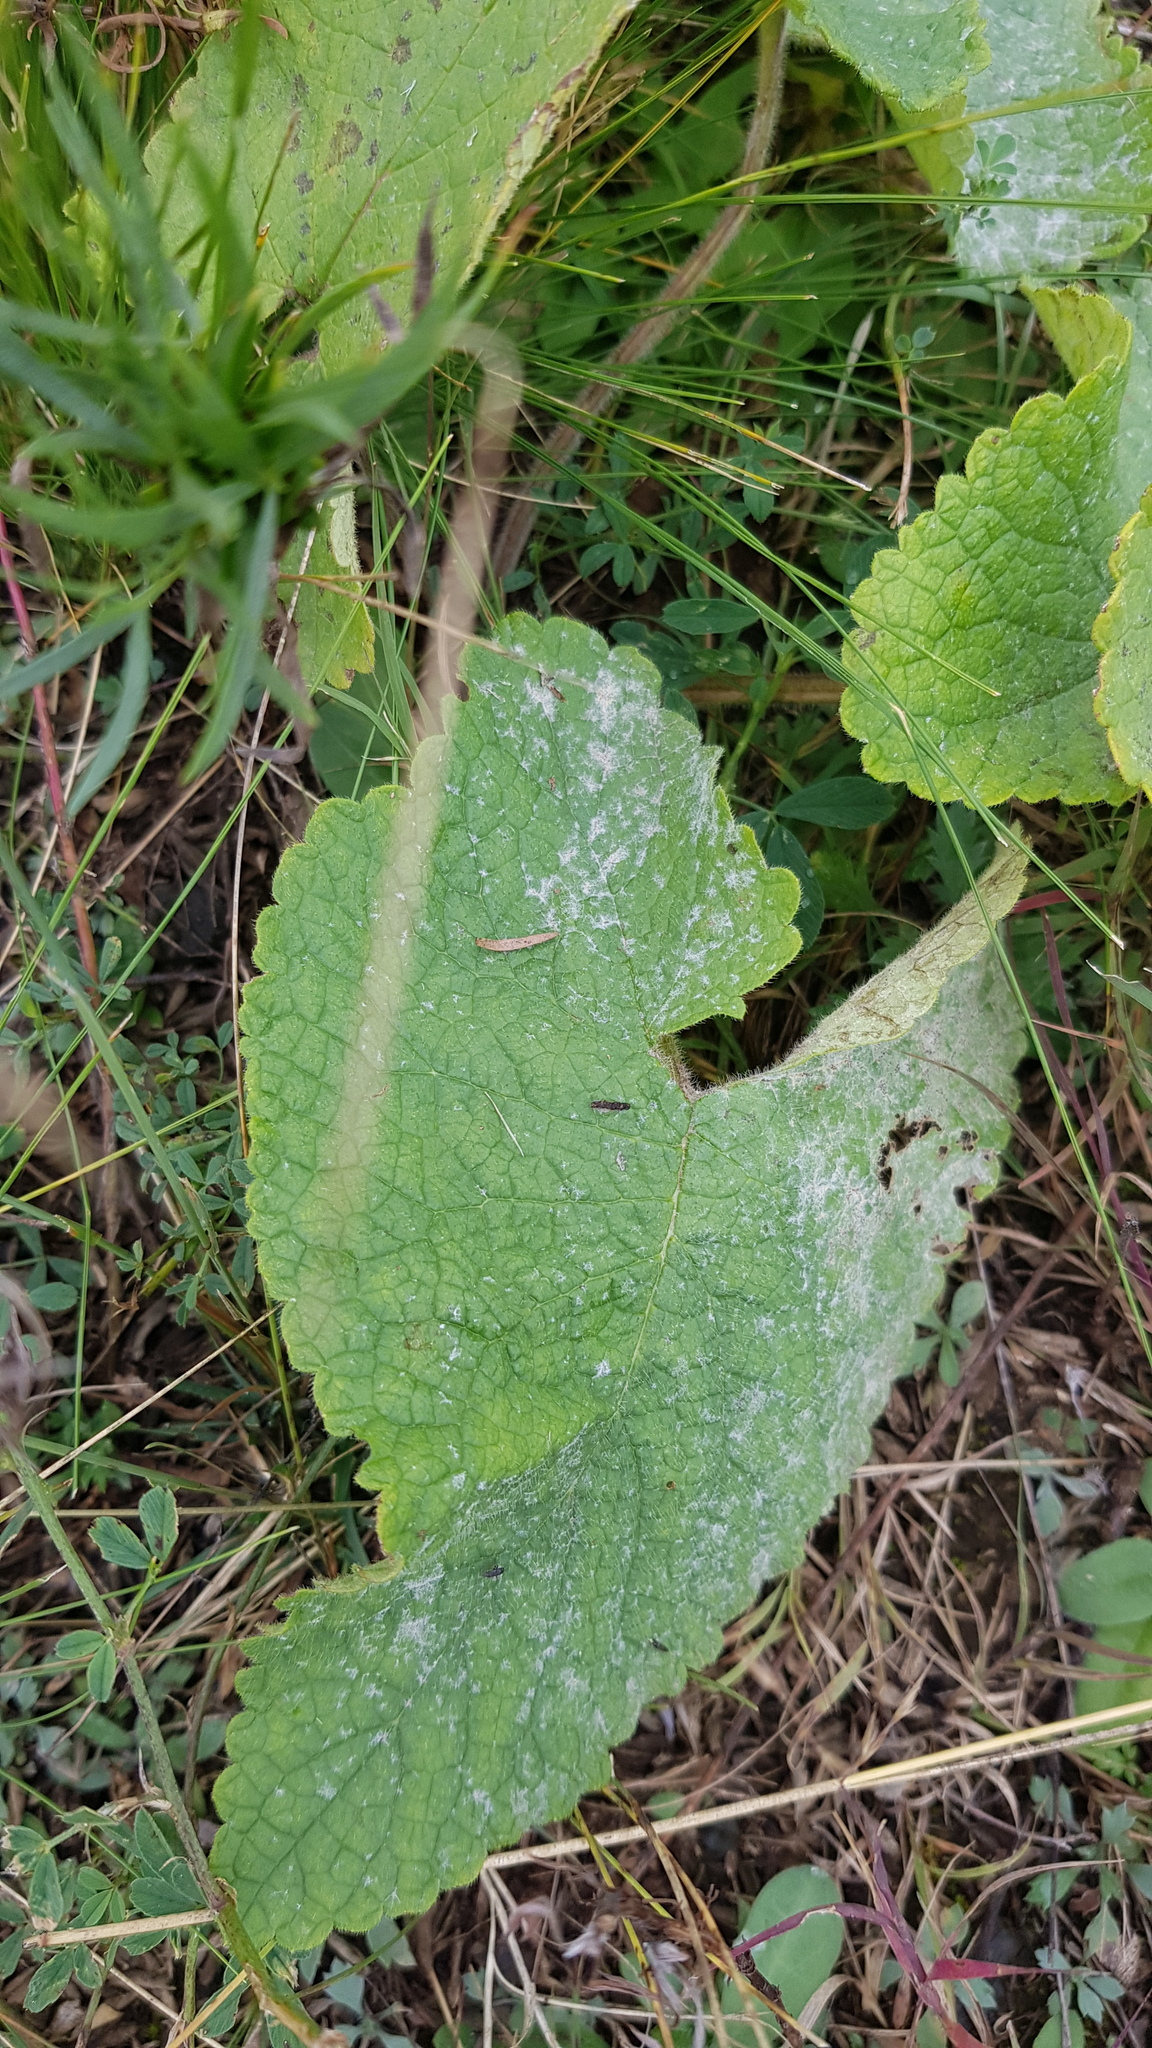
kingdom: Plantae
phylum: Tracheophyta
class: Magnoliopsida
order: Lamiales
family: Lamiaceae
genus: Phlomoides
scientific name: Phlomoides tuberosa
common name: Tuberous jerusalem sage
